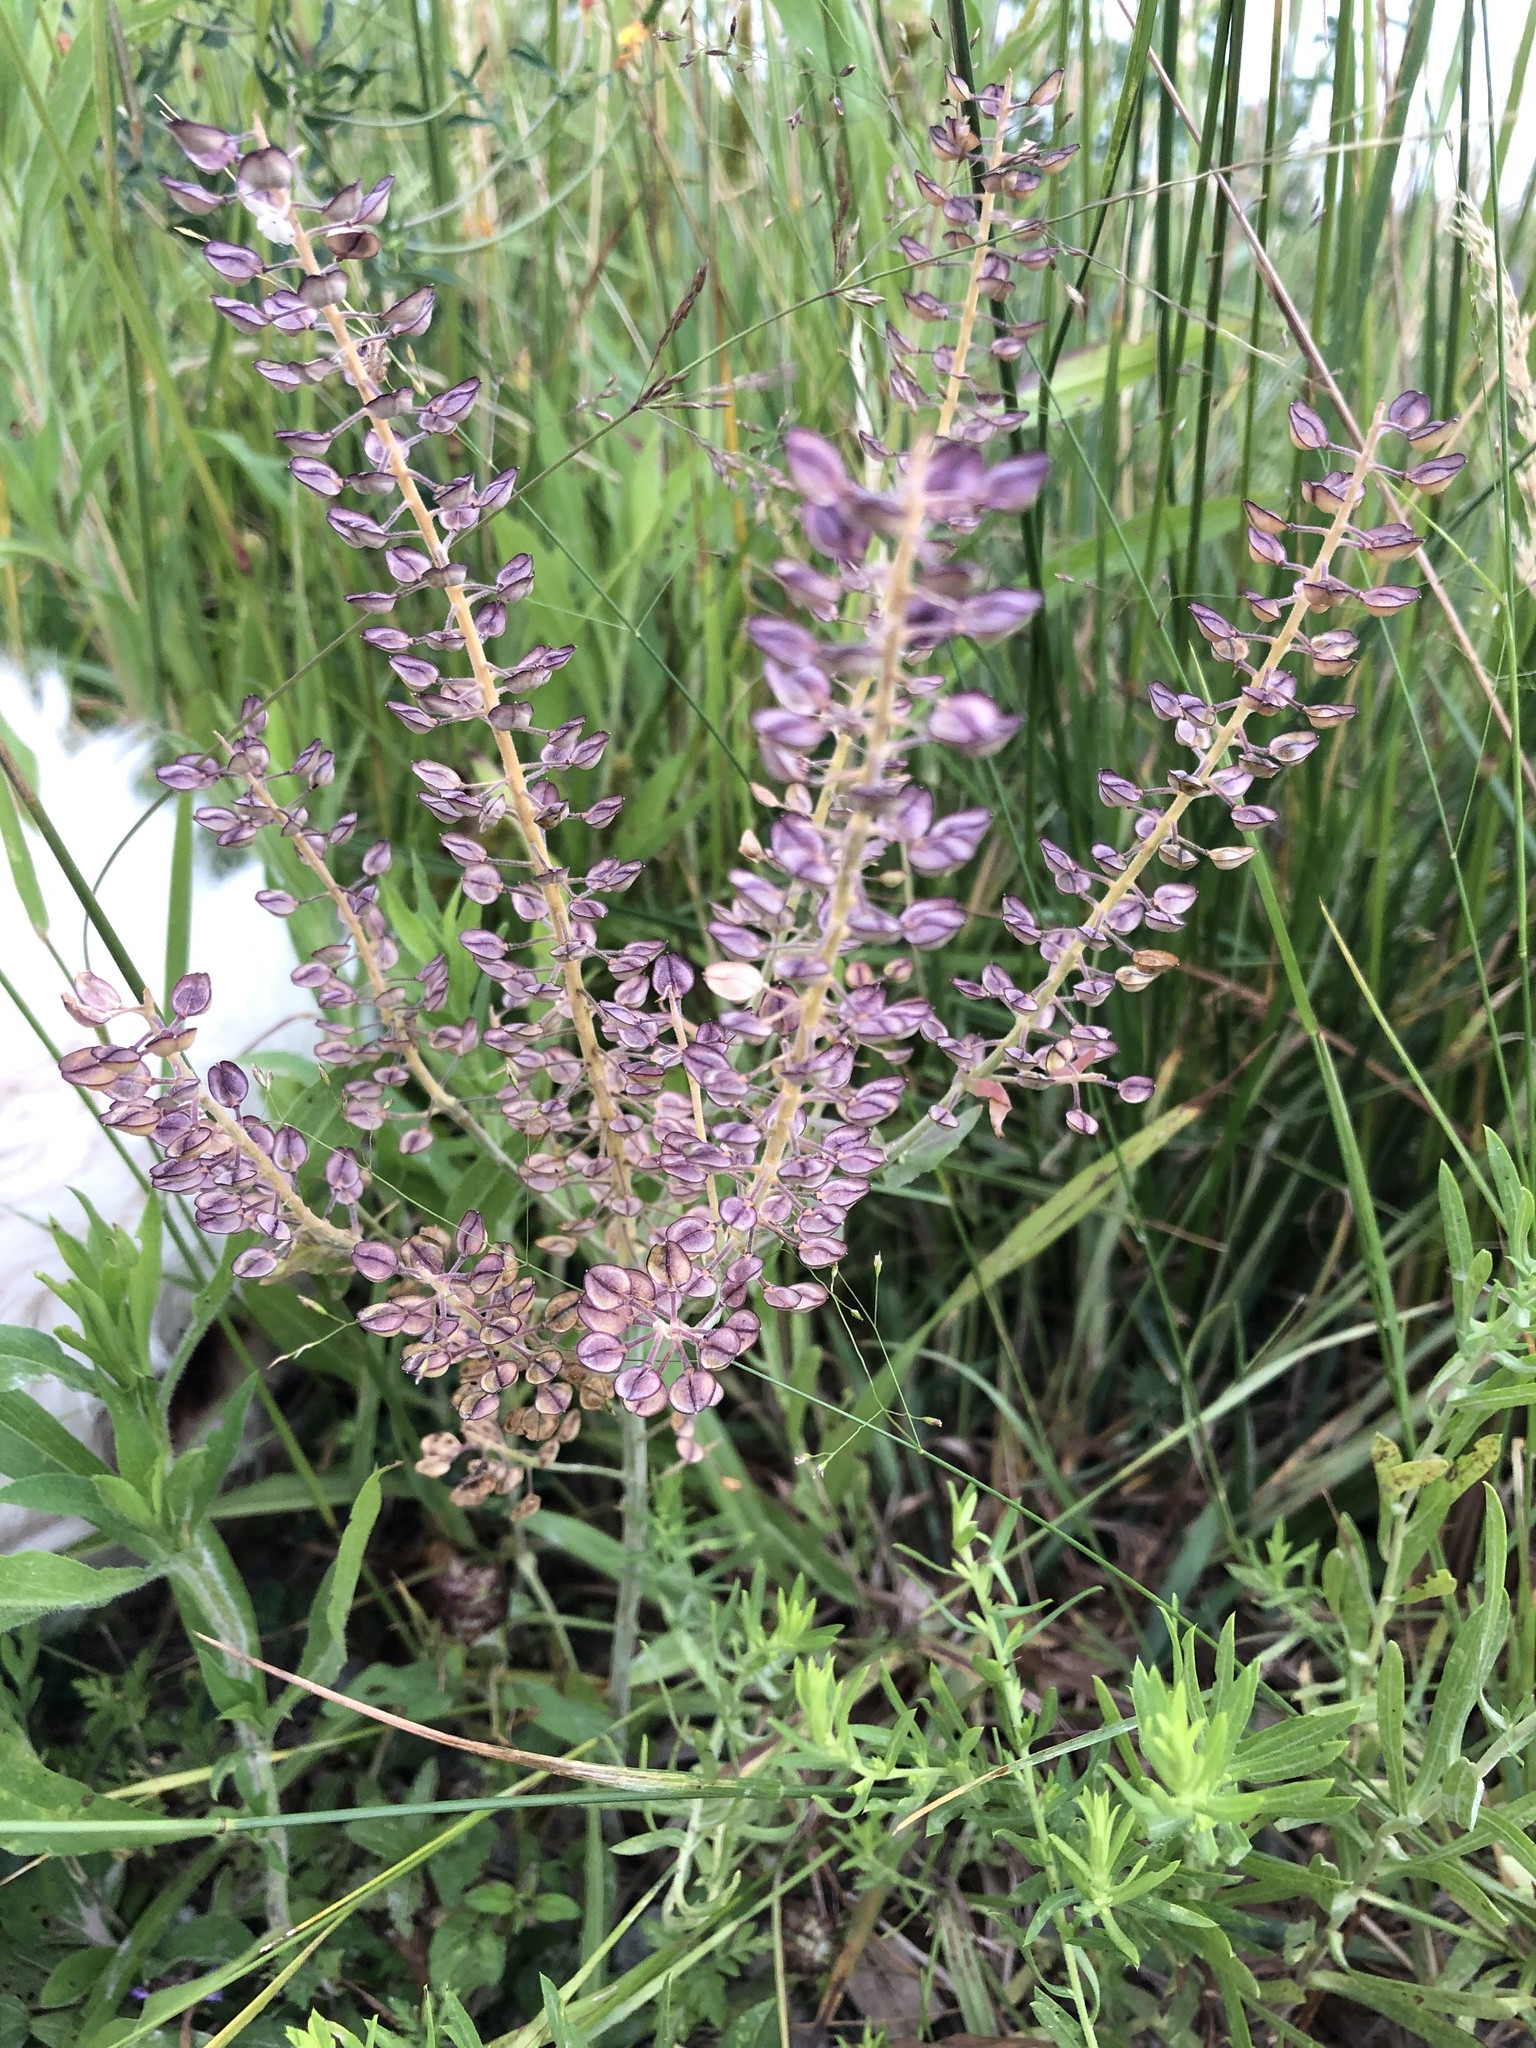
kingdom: Plantae
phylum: Tracheophyta
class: Magnoliopsida
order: Brassicales
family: Brassicaceae
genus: Lepidium
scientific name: Lepidium campestre
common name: Field pepperwort
